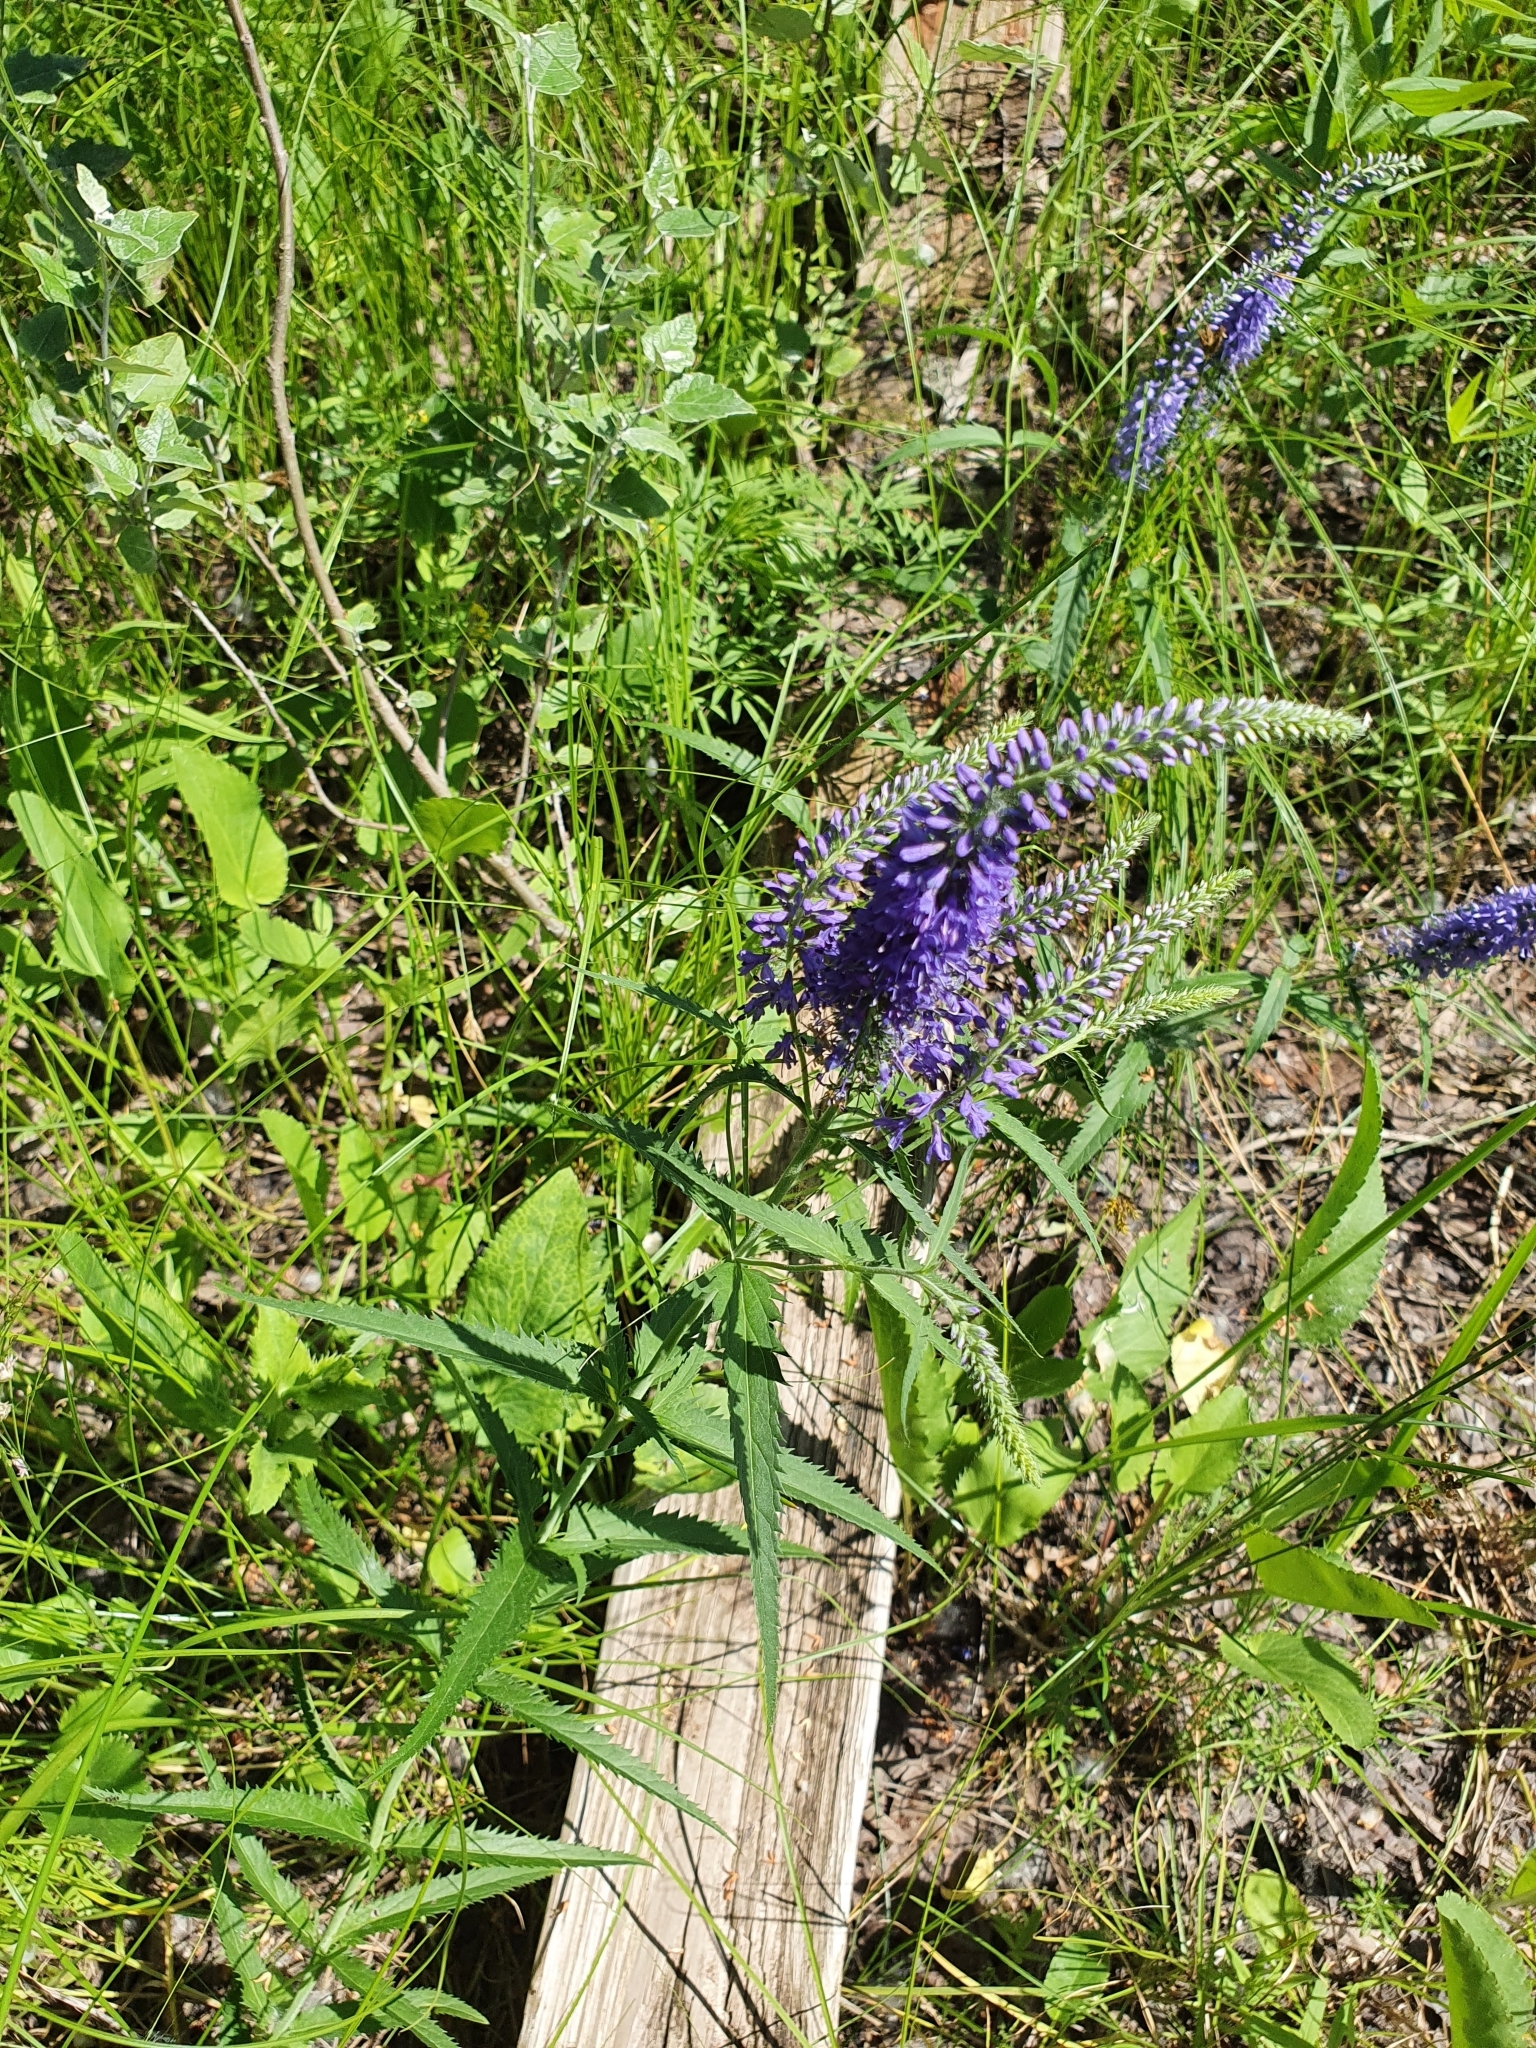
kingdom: Plantae
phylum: Tracheophyta
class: Magnoliopsida
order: Lamiales
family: Plantaginaceae
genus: Veronica
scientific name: Veronica longifolia
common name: Garden speedwell
